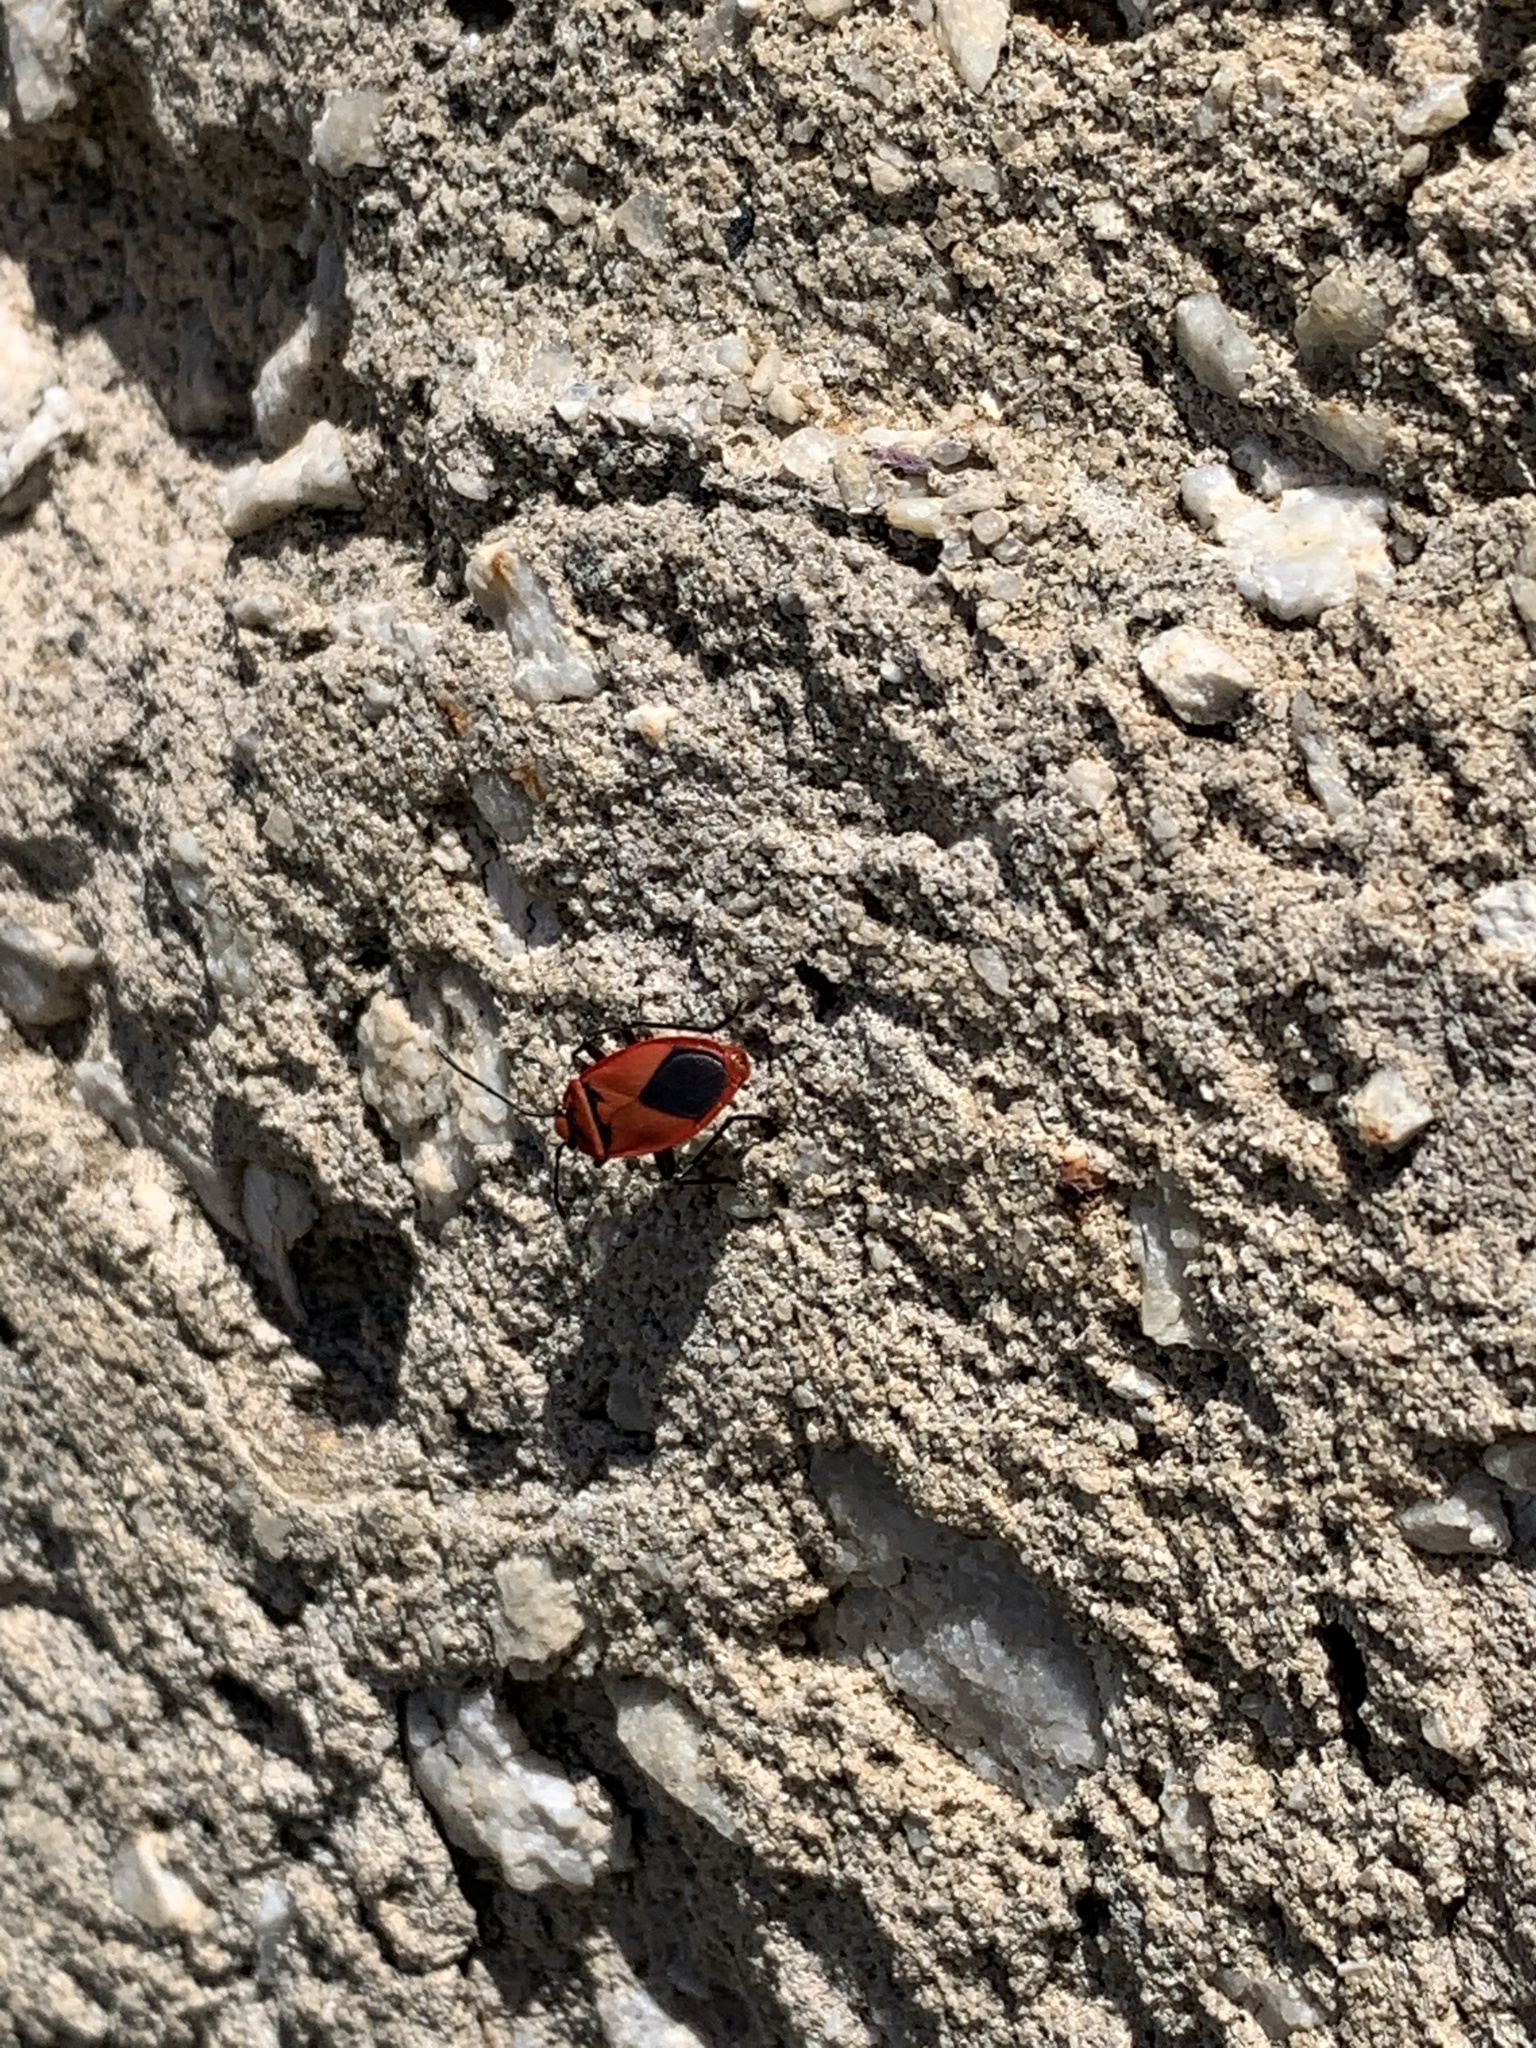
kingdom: Animalia
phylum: Arthropoda
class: Insecta
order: Hemiptera
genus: Cenaeus
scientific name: Cenaeus
